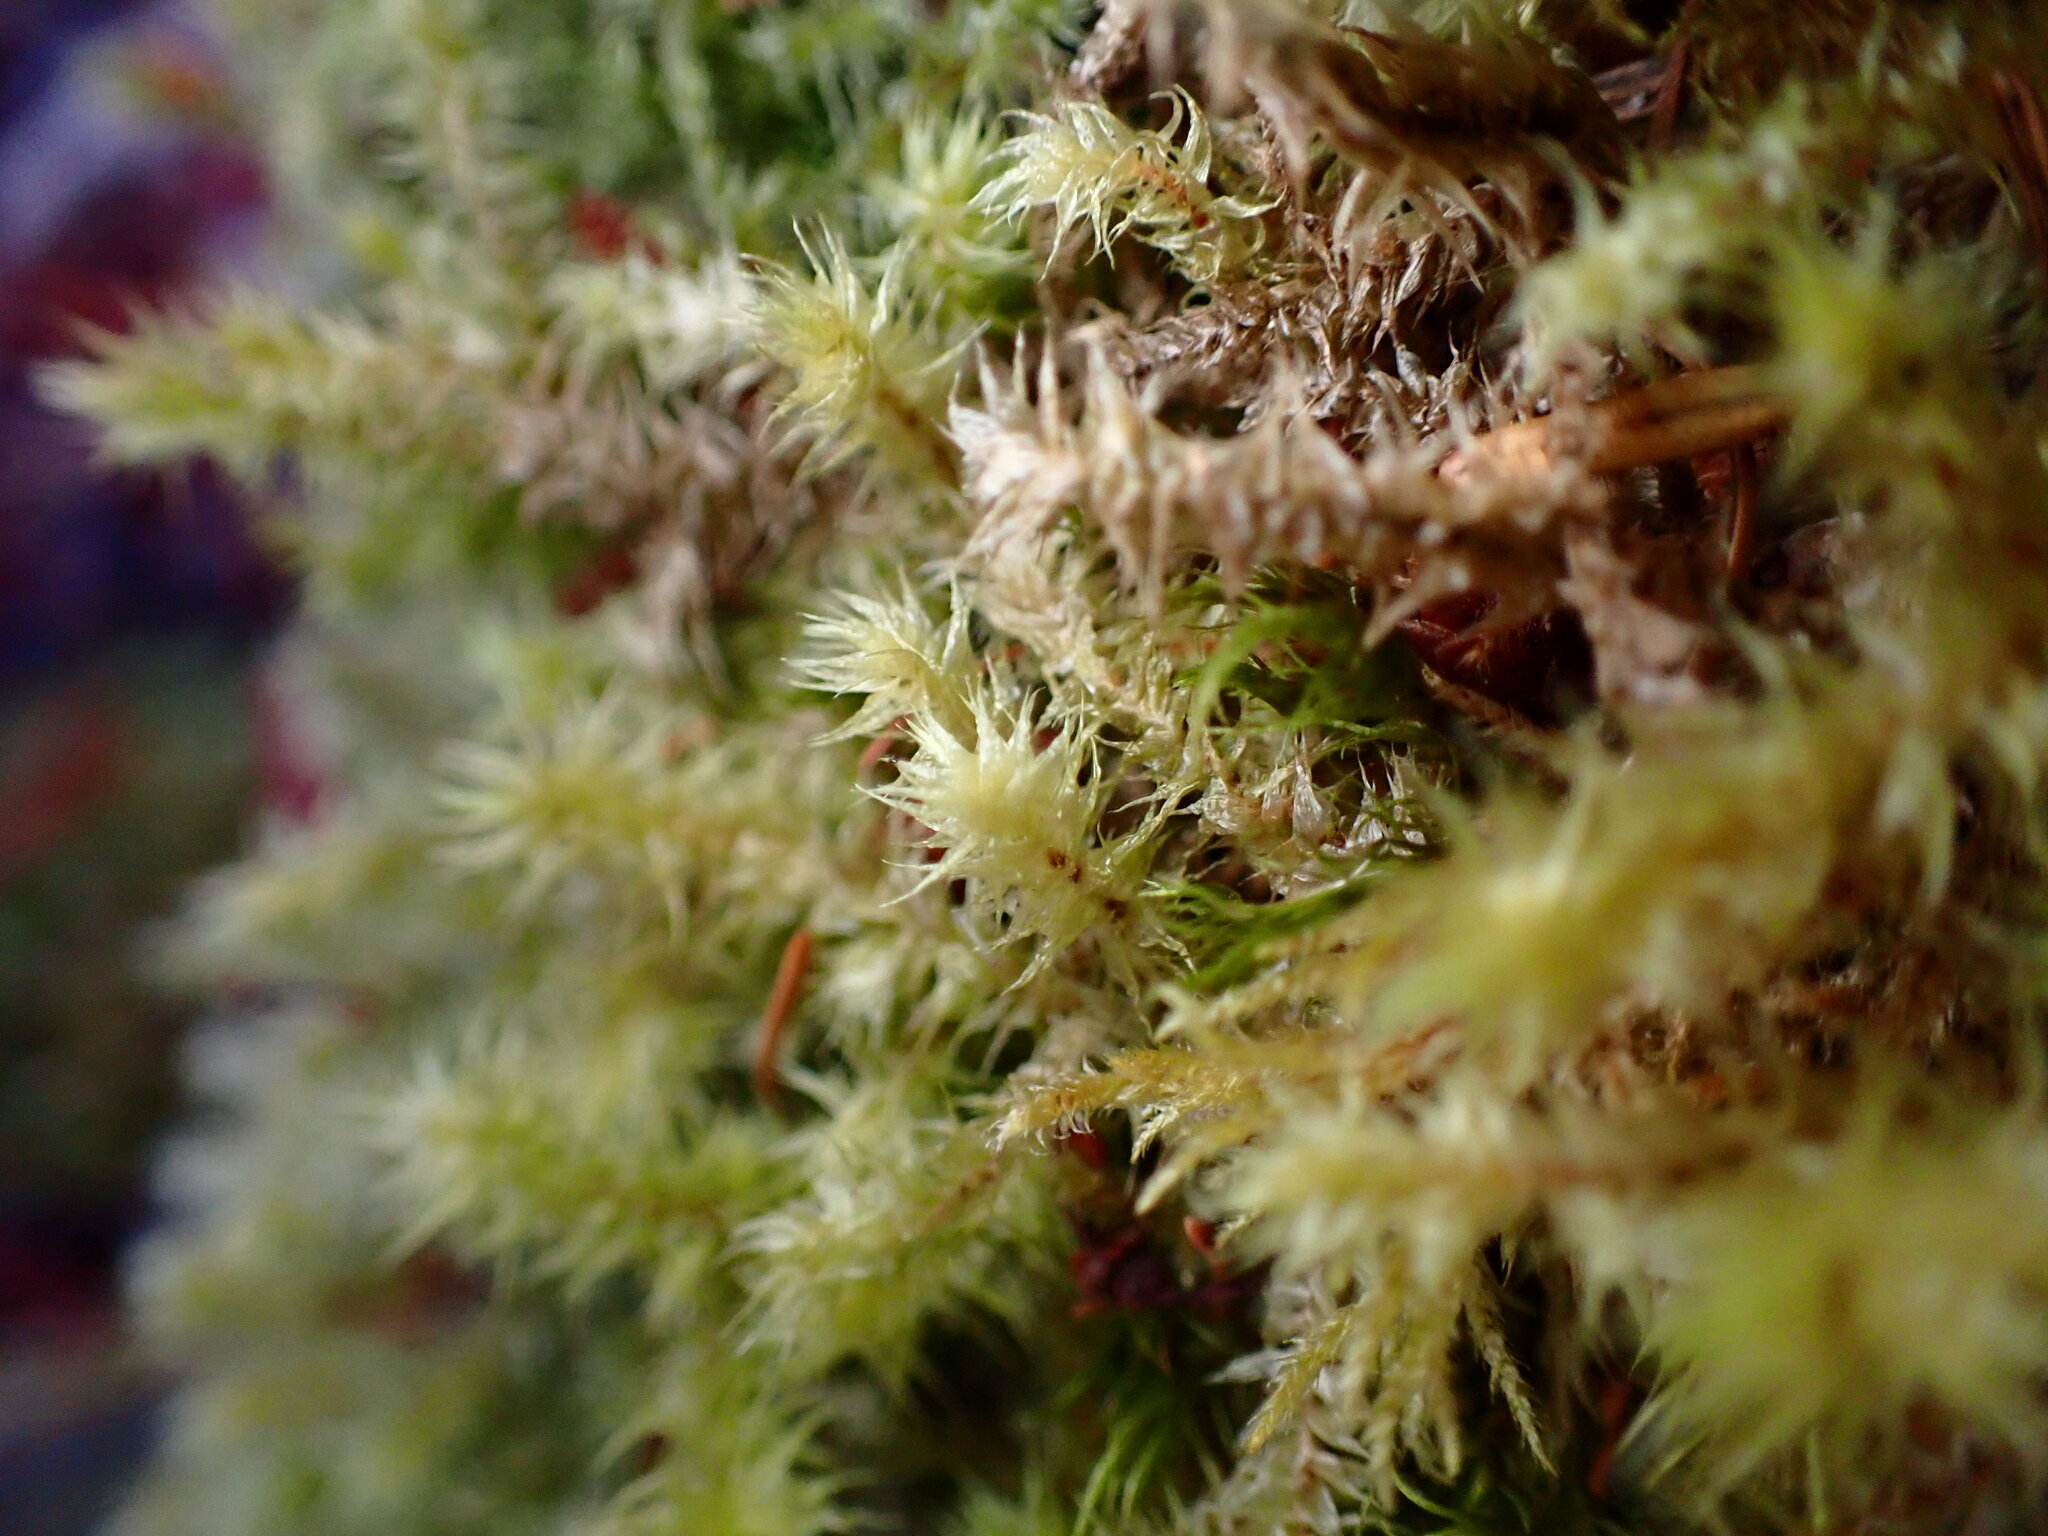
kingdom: Plantae
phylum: Bryophyta
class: Bryopsida
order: Hypnales
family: Hylocomiaceae
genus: Hylocomiadelphus
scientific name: Hylocomiadelphus triquetrus
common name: Rough goose neck moss
